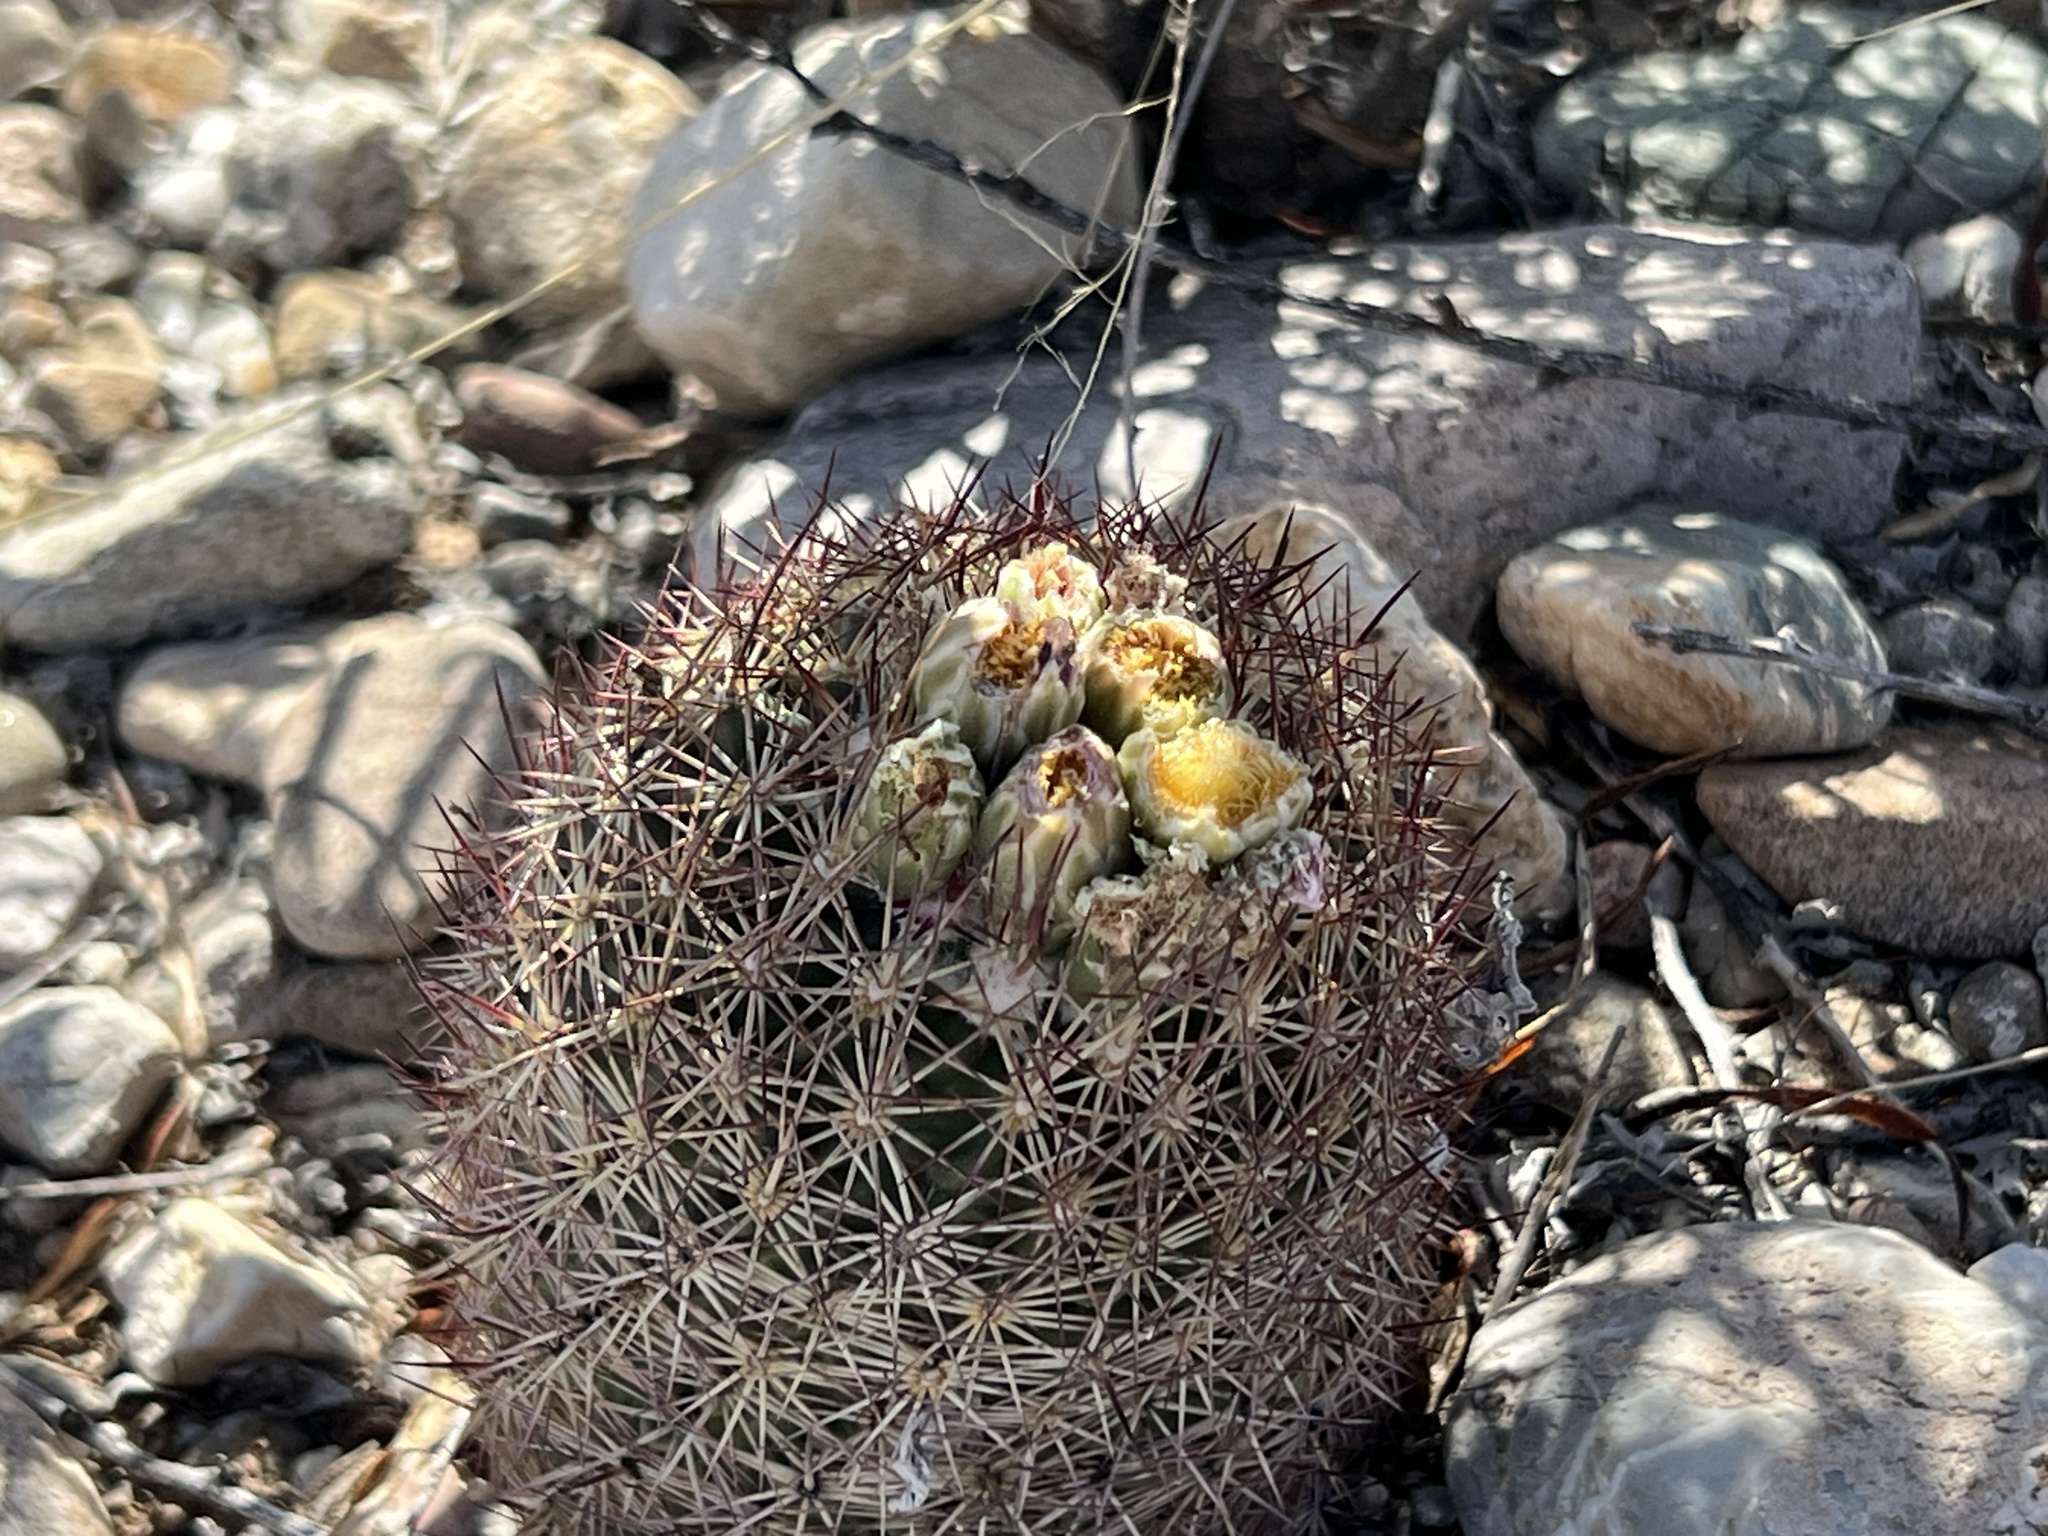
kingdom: Plantae
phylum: Tracheophyta
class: Magnoliopsida
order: Caryophyllales
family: Cactaceae
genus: Sclerocactus
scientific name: Sclerocactus johnsonii
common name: Eight-spine fishhook cactus
